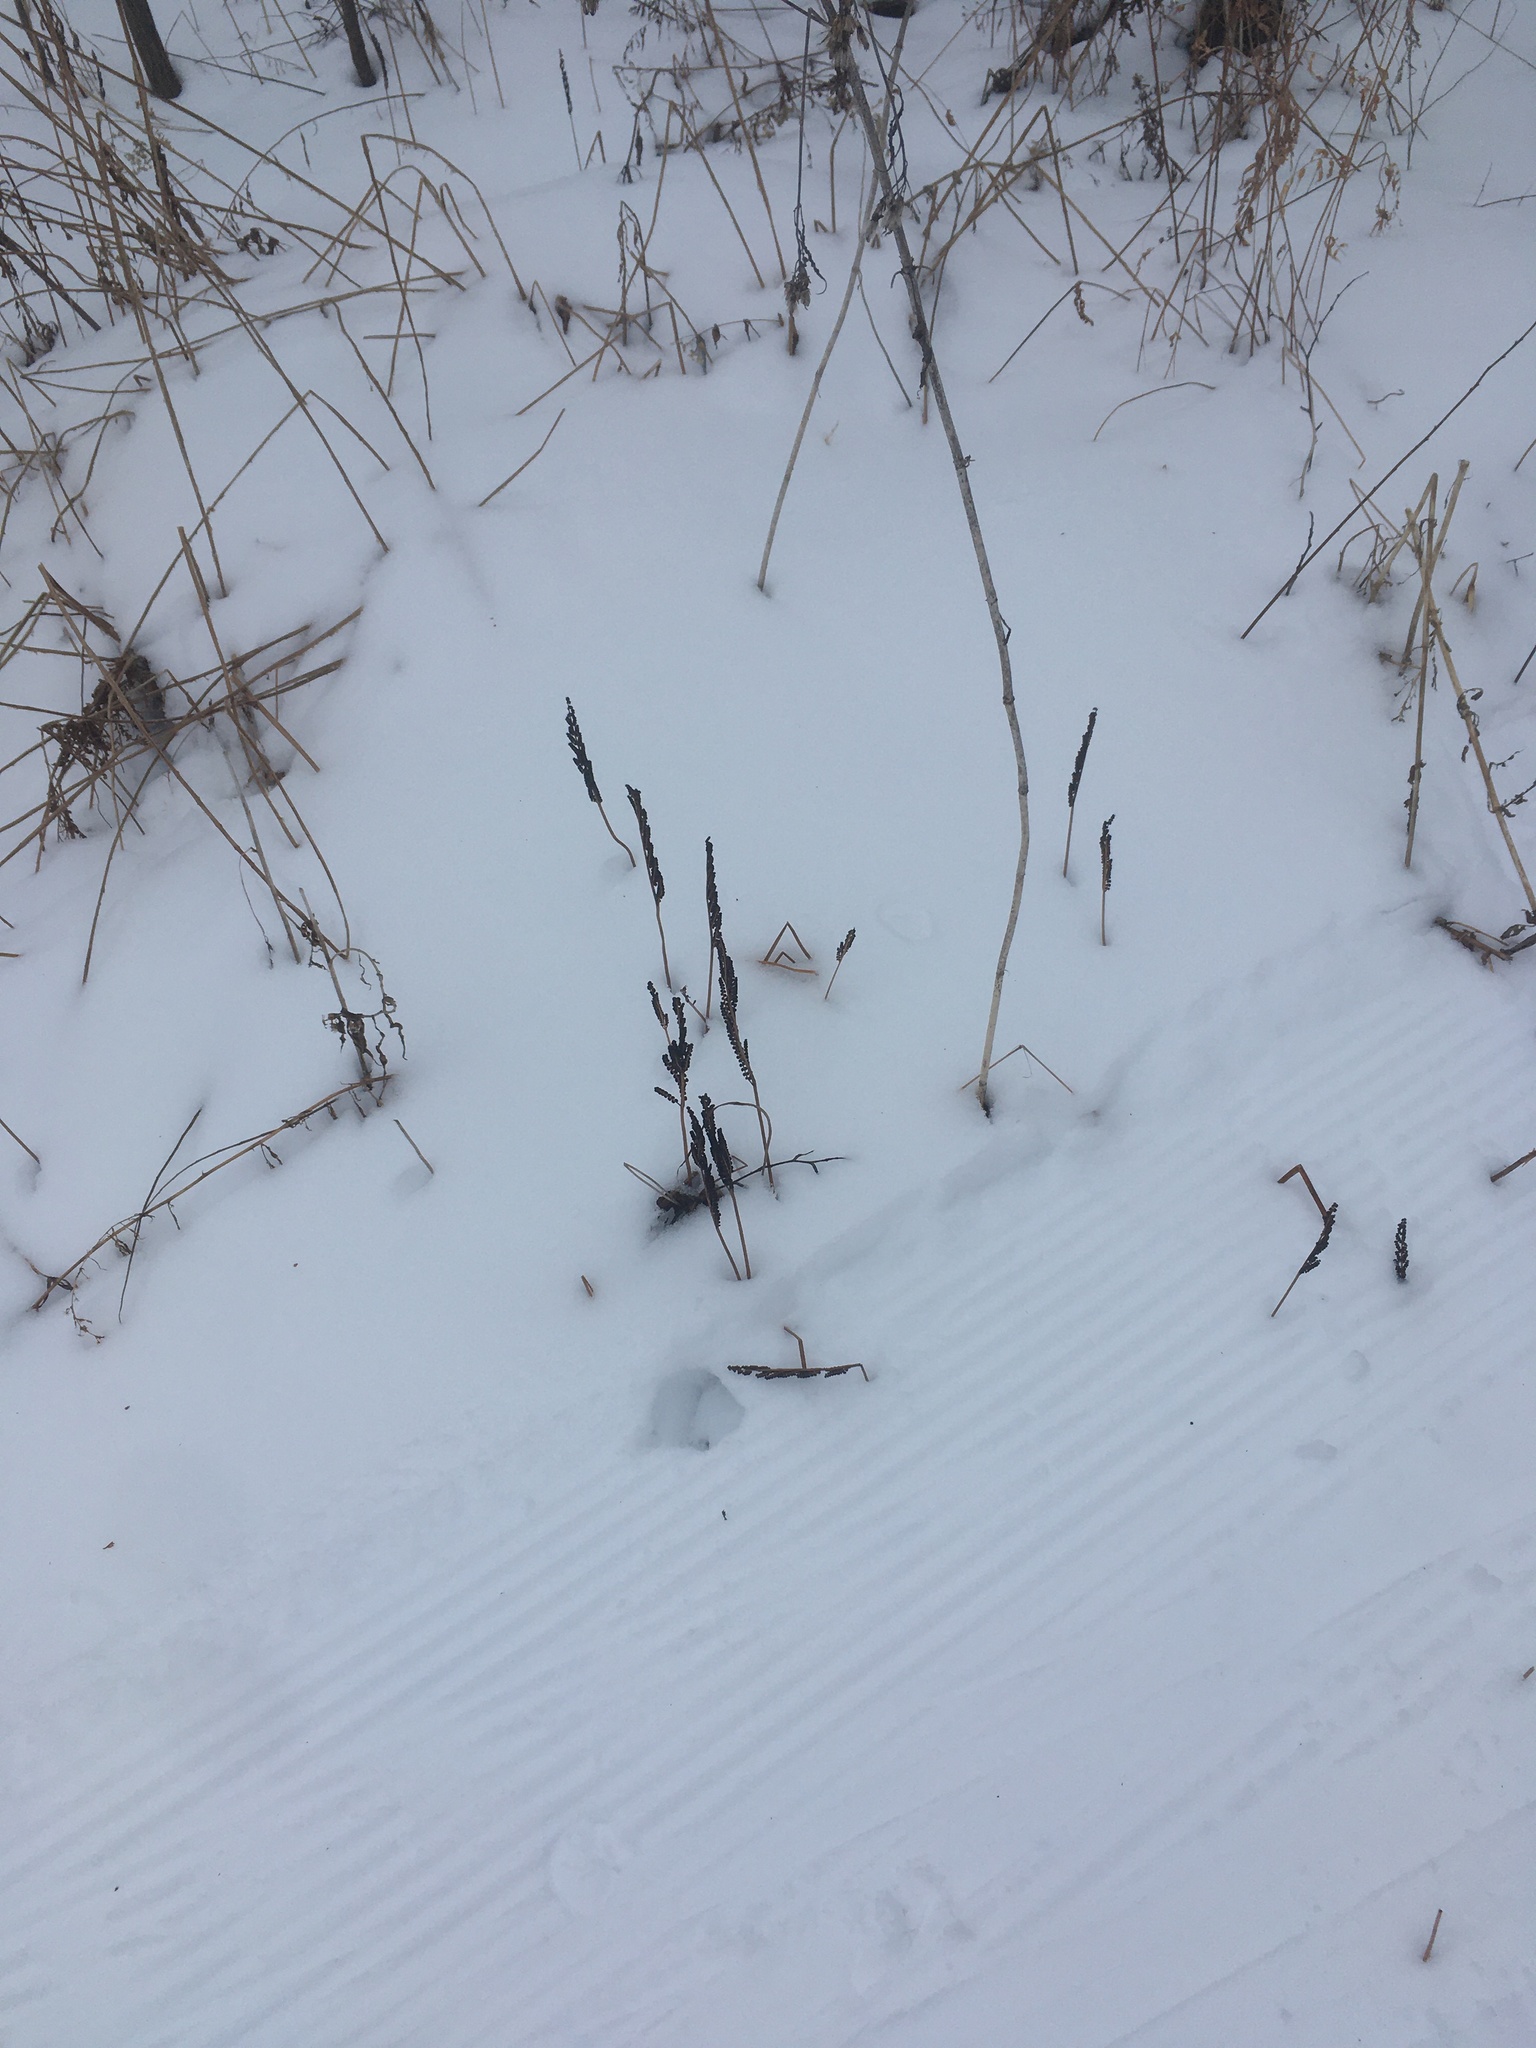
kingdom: Plantae
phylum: Tracheophyta
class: Polypodiopsida
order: Polypodiales
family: Onocleaceae
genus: Onoclea
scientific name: Onoclea sensibilis
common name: Sensitive fern
